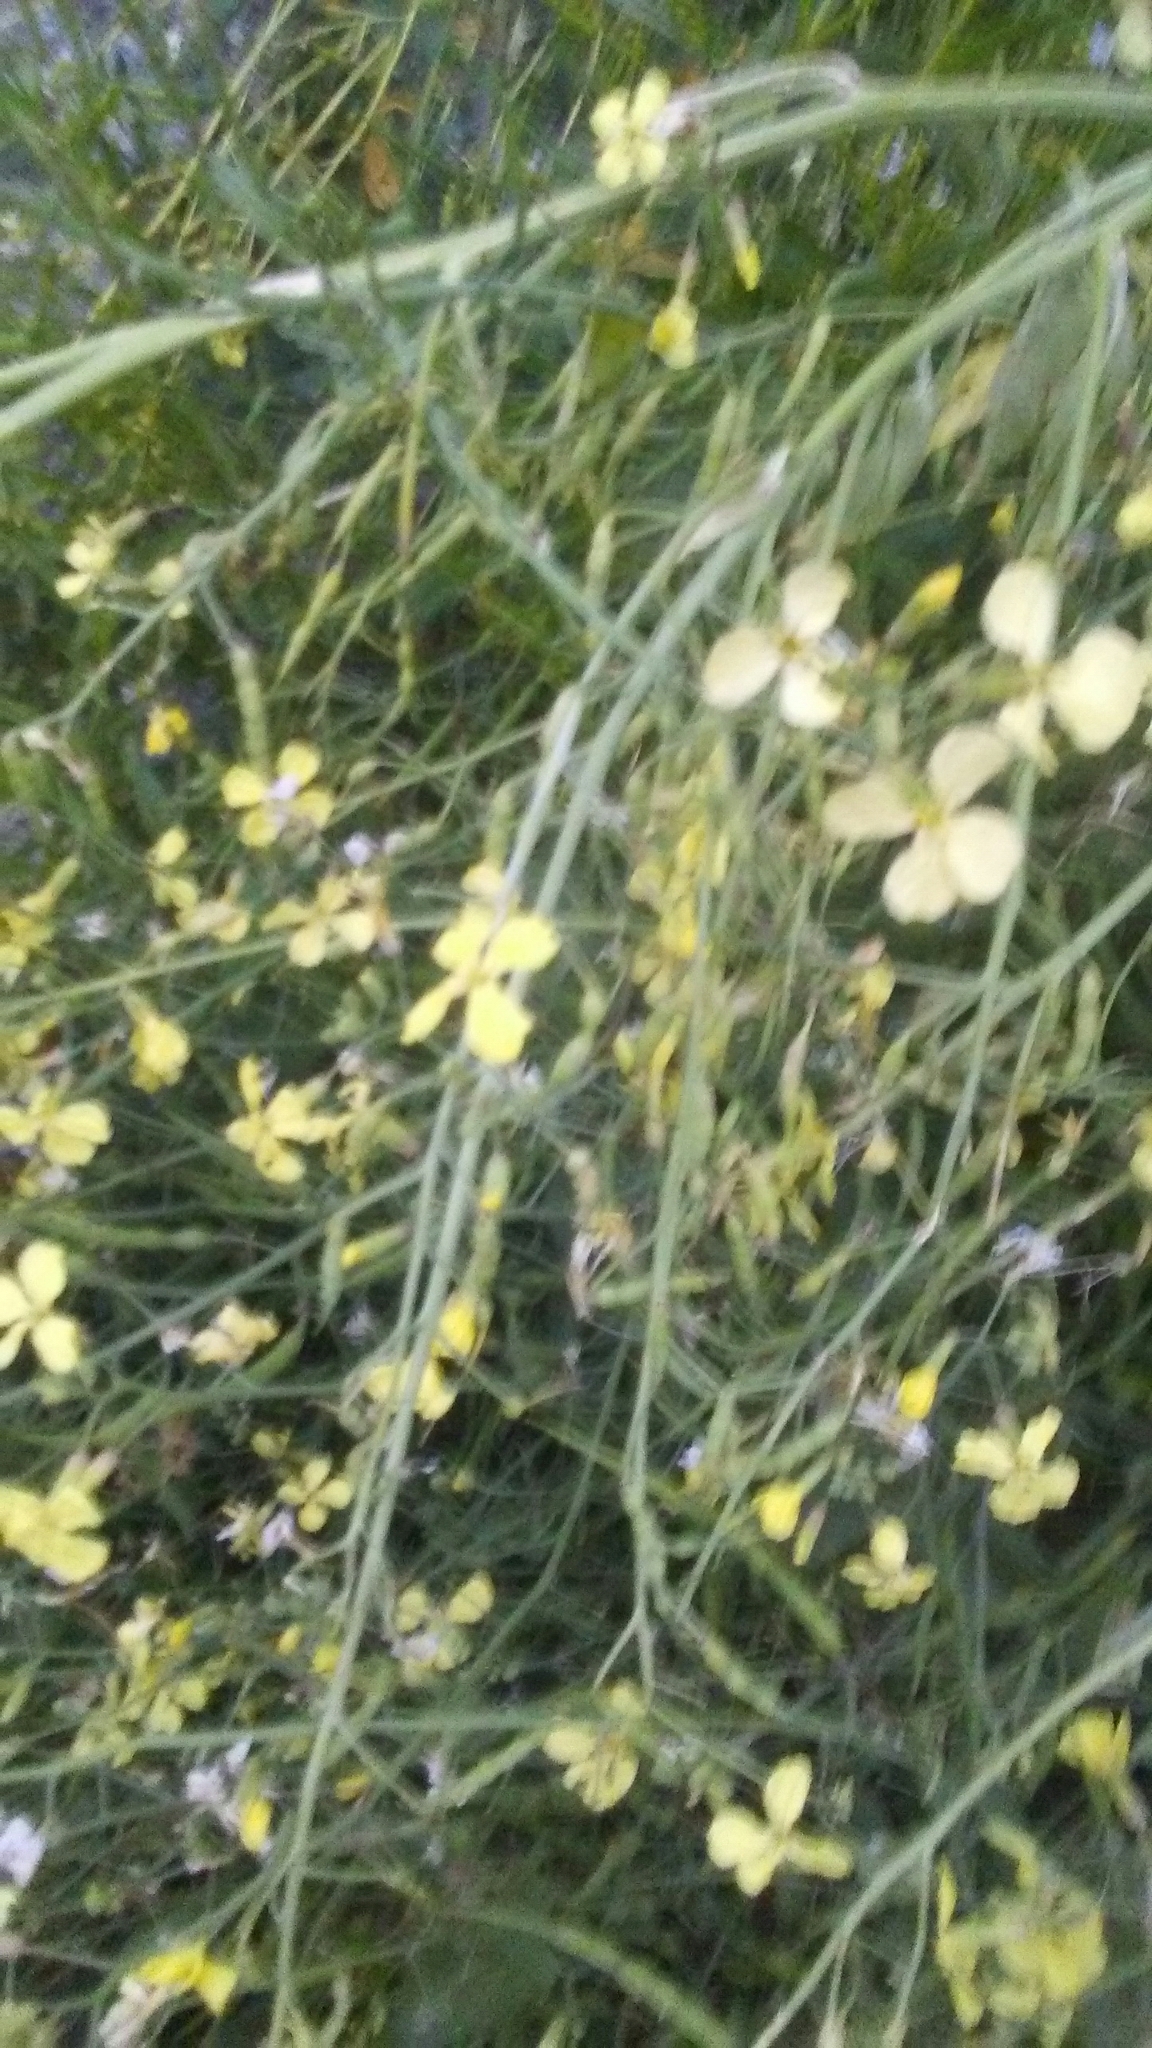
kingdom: Plantae
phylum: Tracheophyta
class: Magnoliopsida
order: Brassicales
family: Brassicaceae
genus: Raphanus
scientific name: Raphanus raphanistrum
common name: Wild radish
